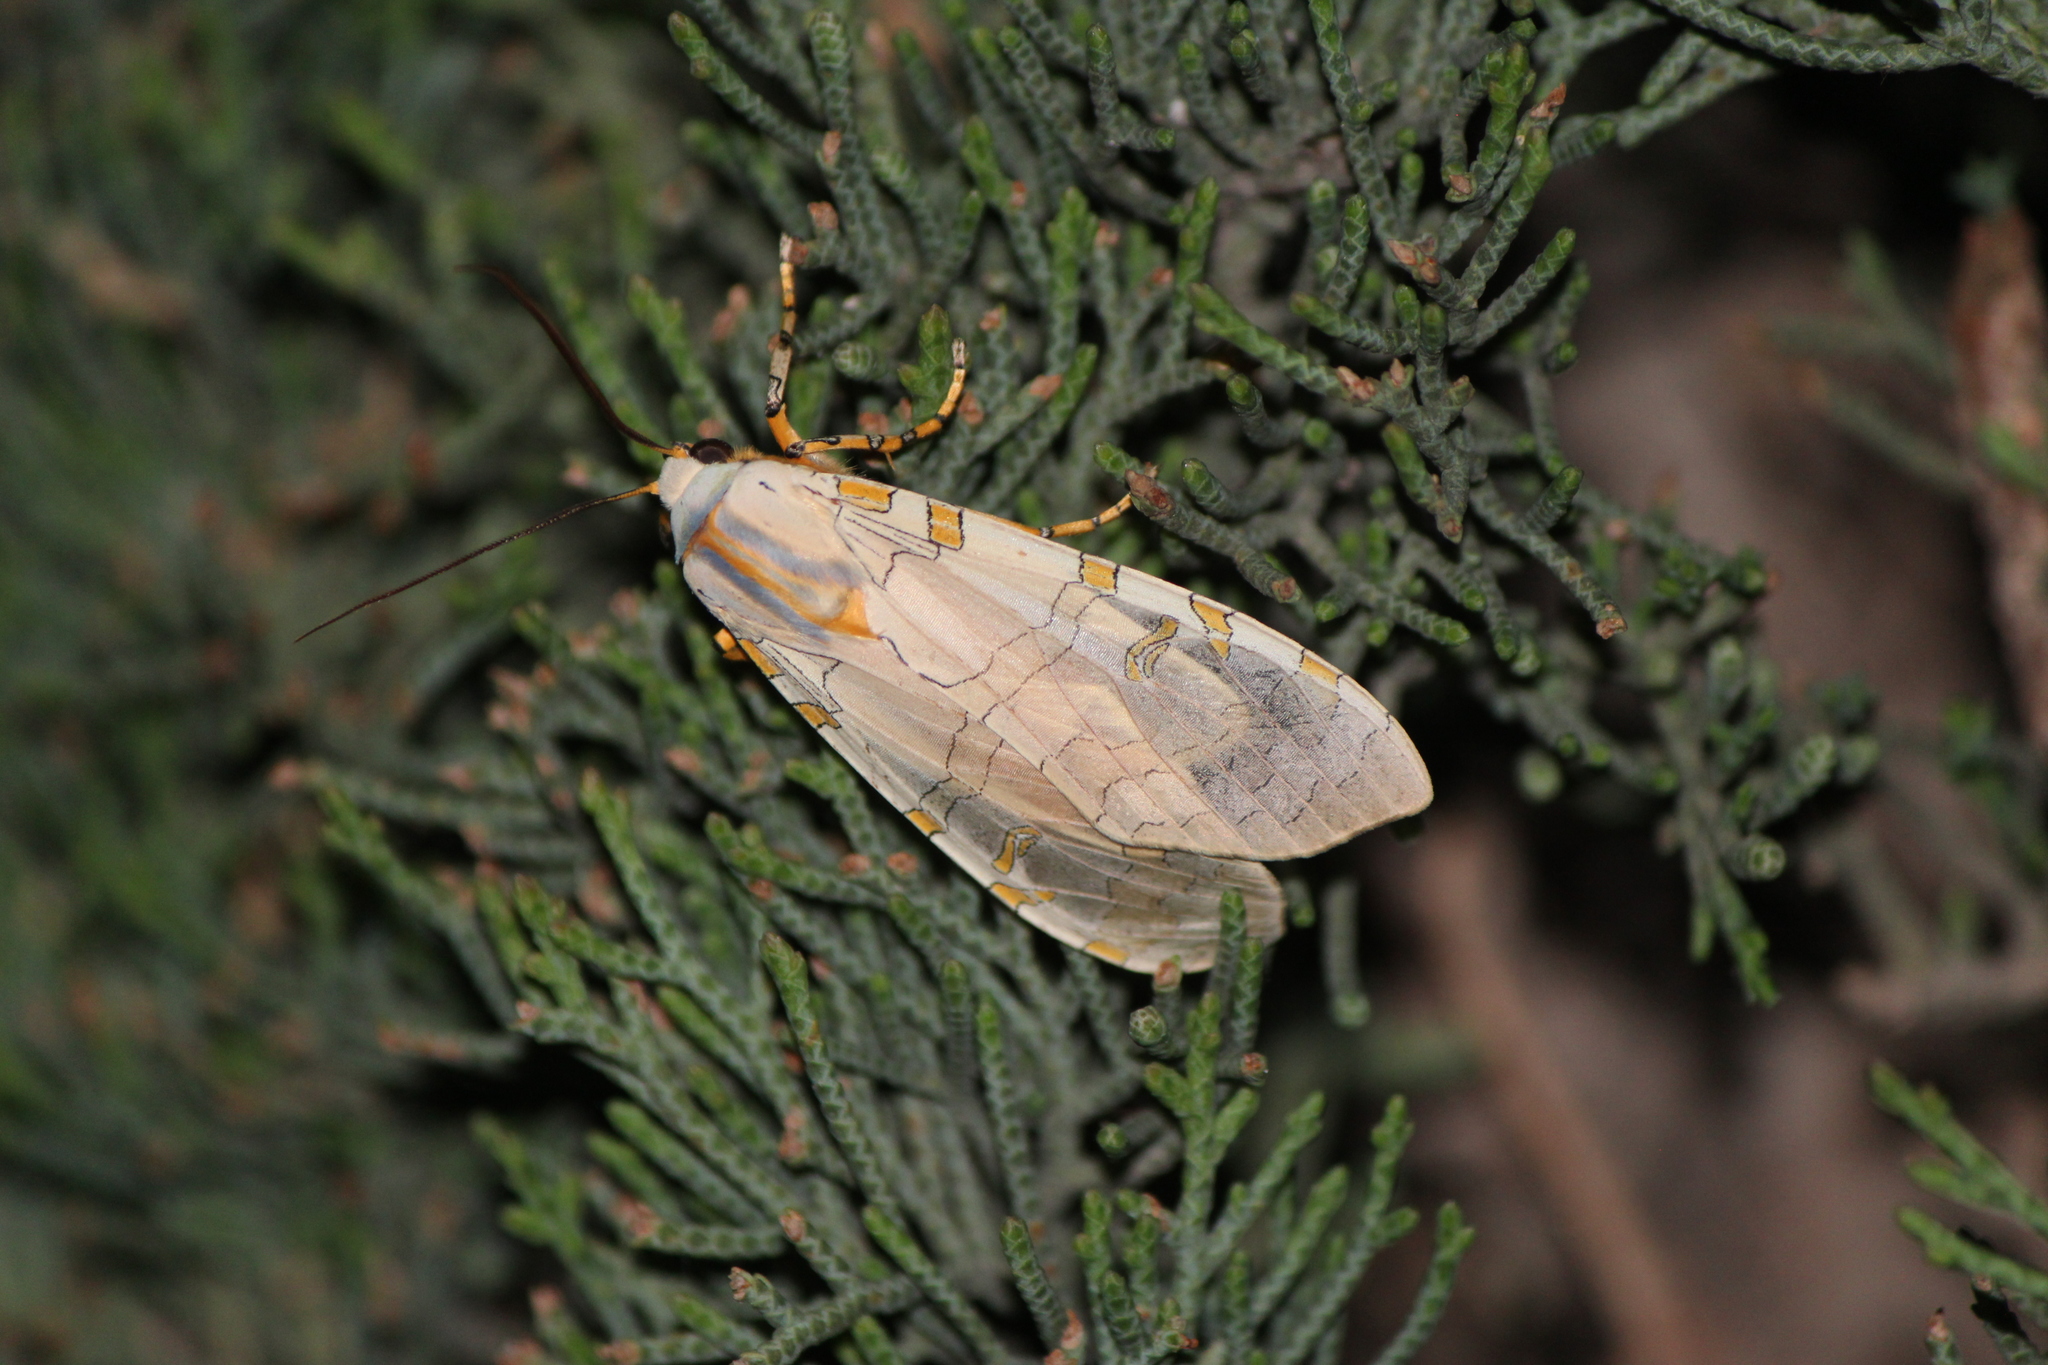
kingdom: Animalia
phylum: Arthropoda
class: Insecta
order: Lepidoptera
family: Erebidae
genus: Halysidota
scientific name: Halysidota schausi
